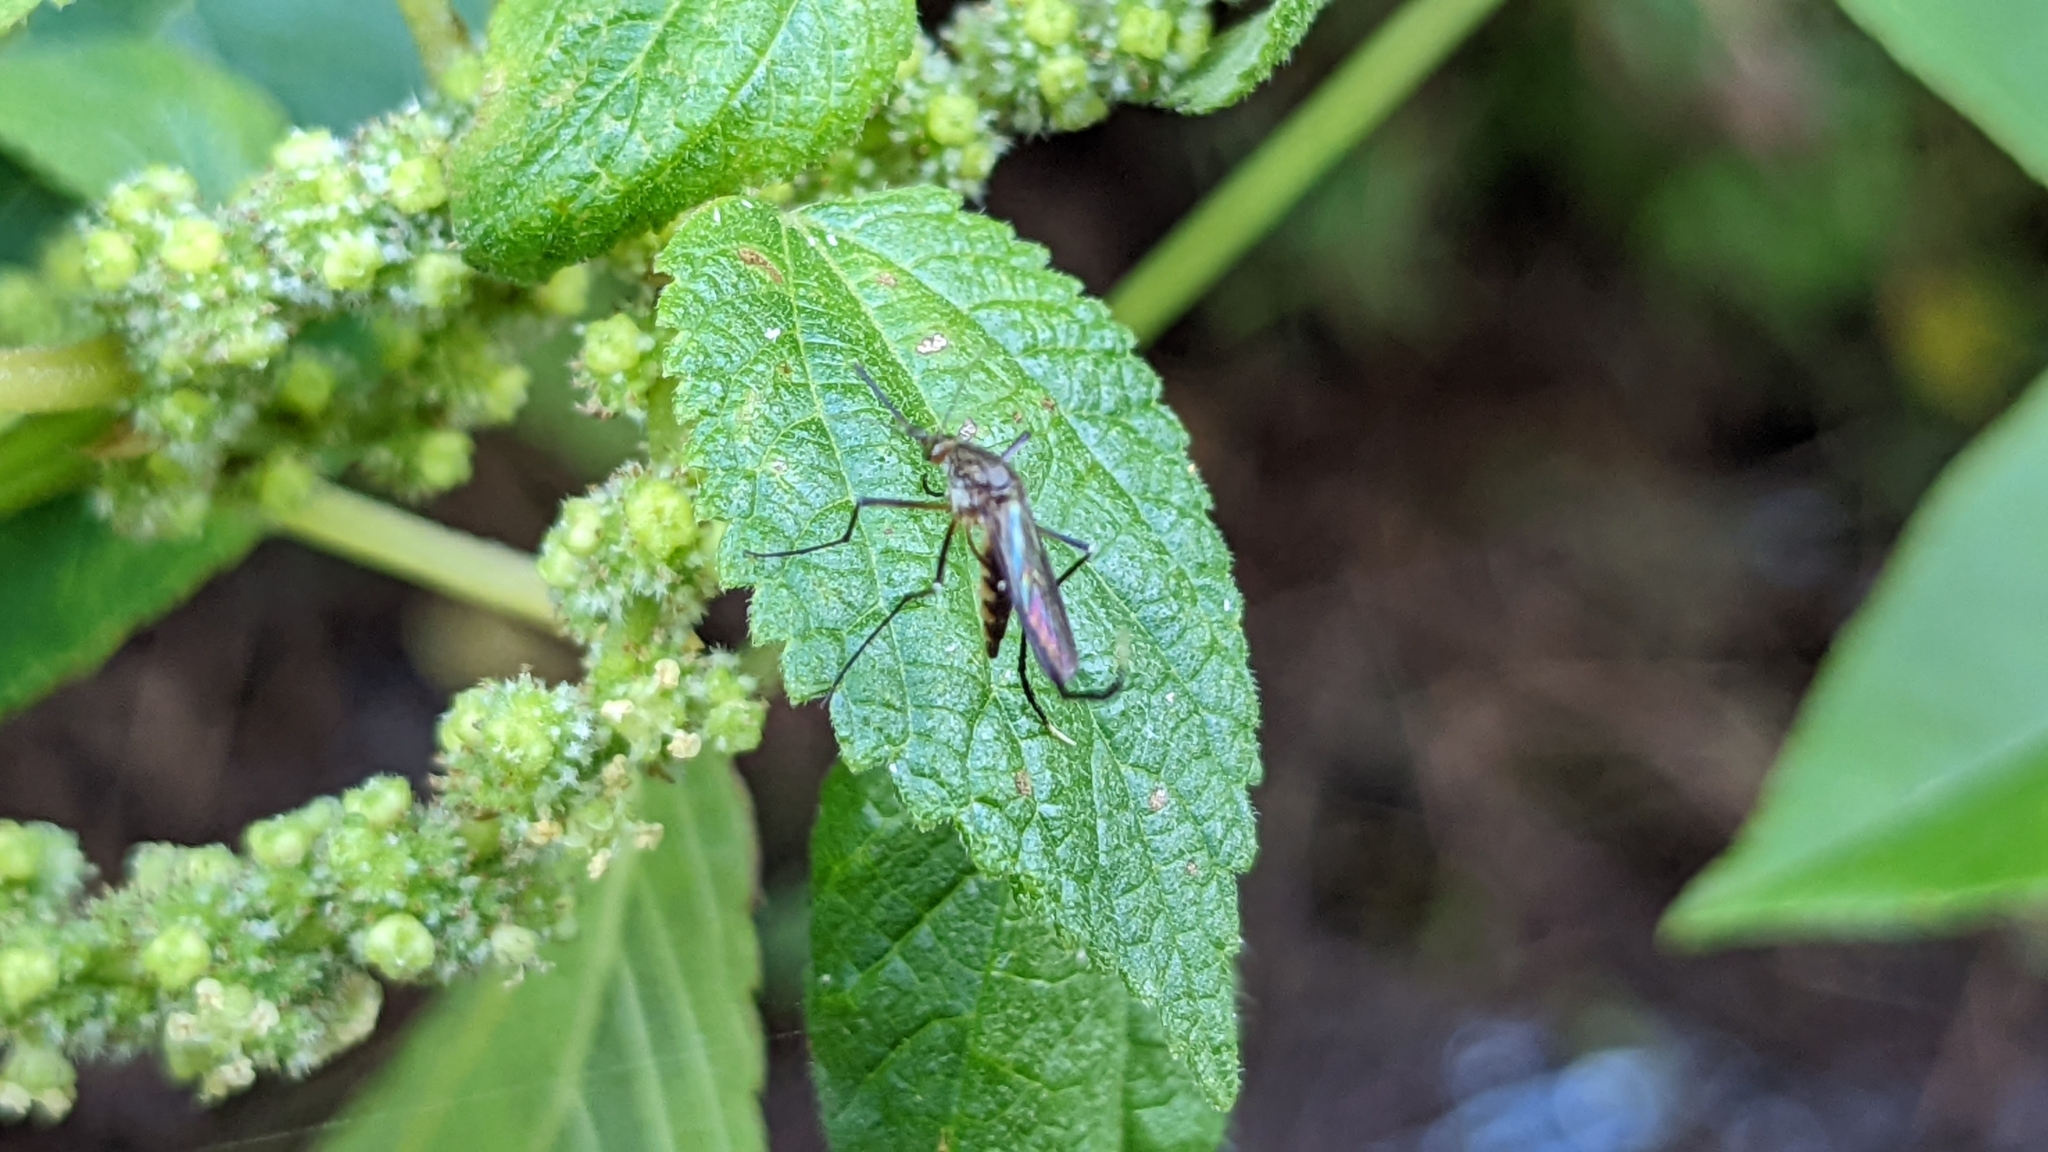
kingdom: Animalia
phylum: Arthropoda
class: Insecta
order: Diptera
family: Culicidae
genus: Psorophora
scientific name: Psorophora ferox
